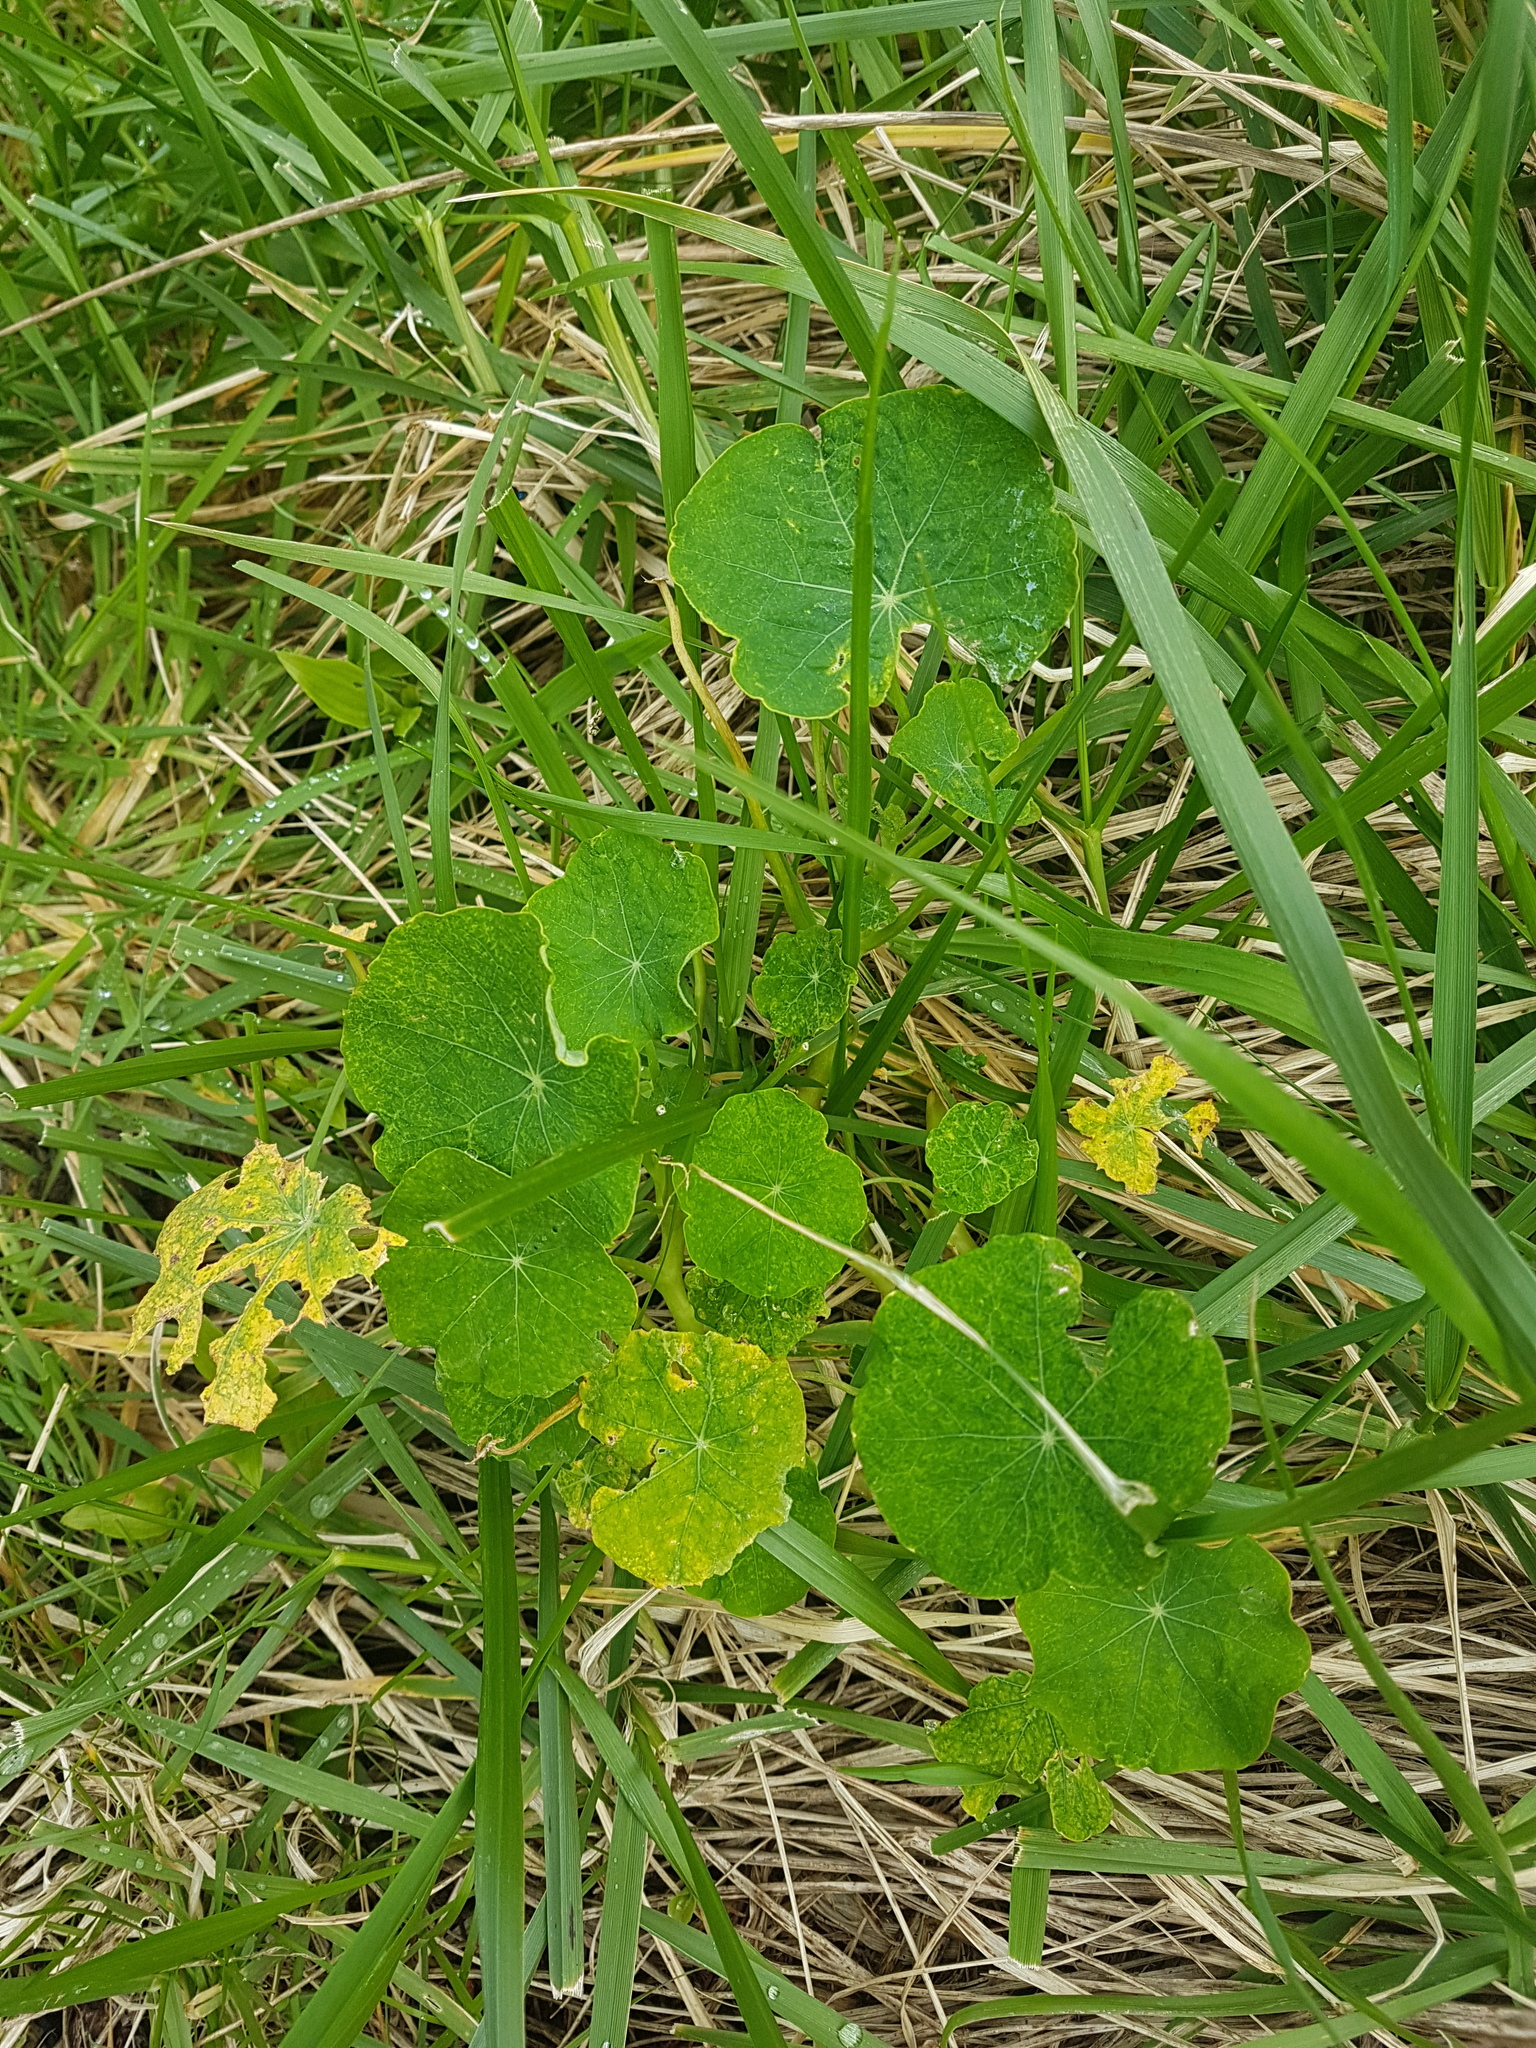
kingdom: Plantae
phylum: Tracheophyta
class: Magnoliopsida
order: Brassicales
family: Tropaeolaceae
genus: Tropaeolum
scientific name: Tropaeolum majus
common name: Nasturtium
